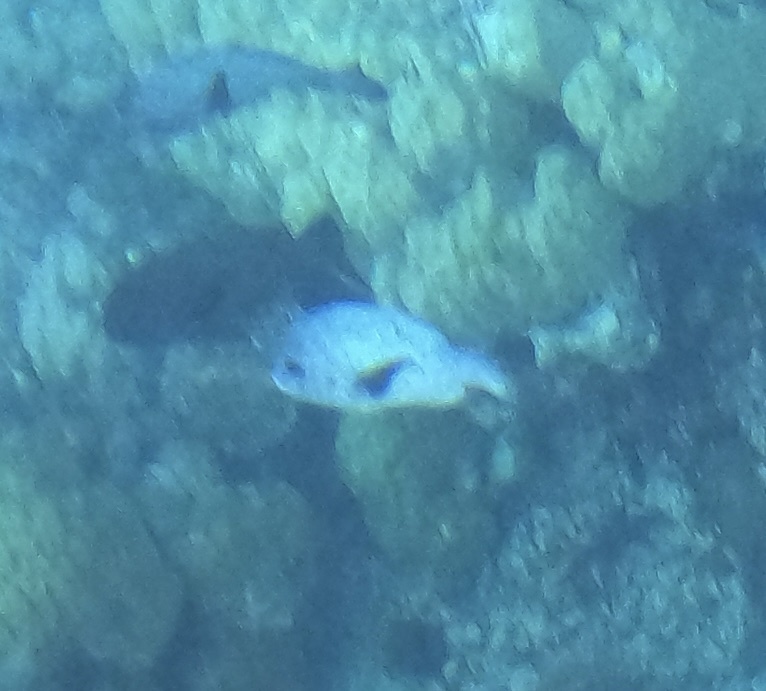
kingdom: Animalia
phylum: Chordata
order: Perciformes
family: Lutjanidae
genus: Macolor
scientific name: Macolor niger
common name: Black snapper
